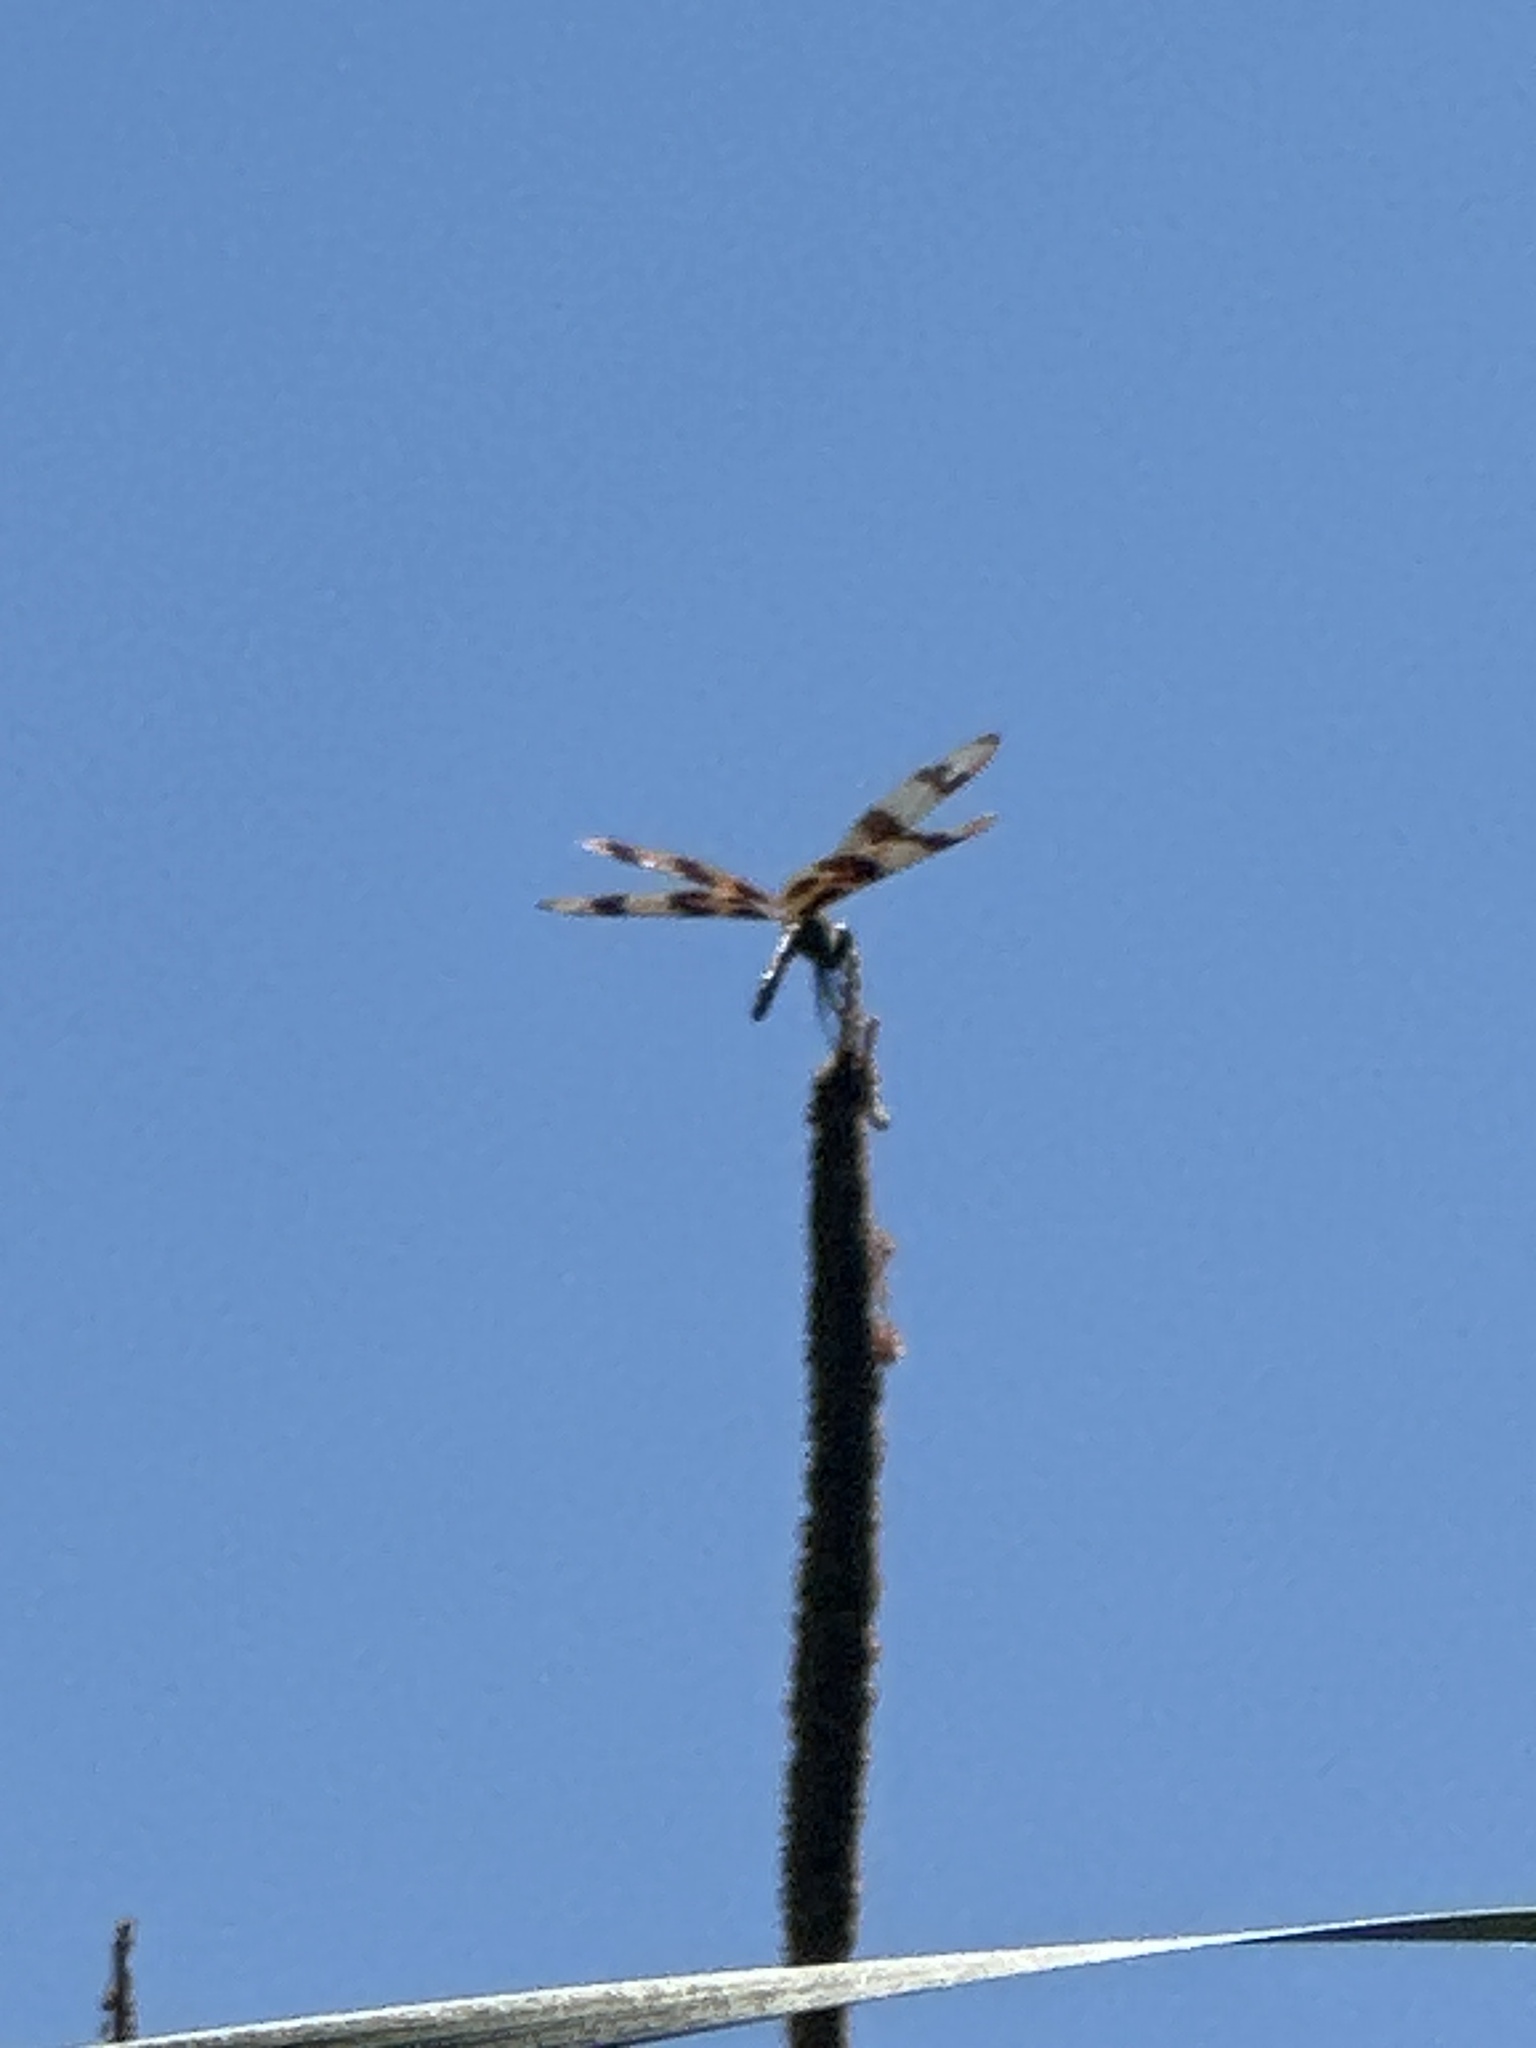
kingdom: Animalia
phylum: Arthropoda
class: Insecta
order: Odonata
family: Libellulidae
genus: Celithemis
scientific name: Celithemis eponina
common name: Halloween pennant
